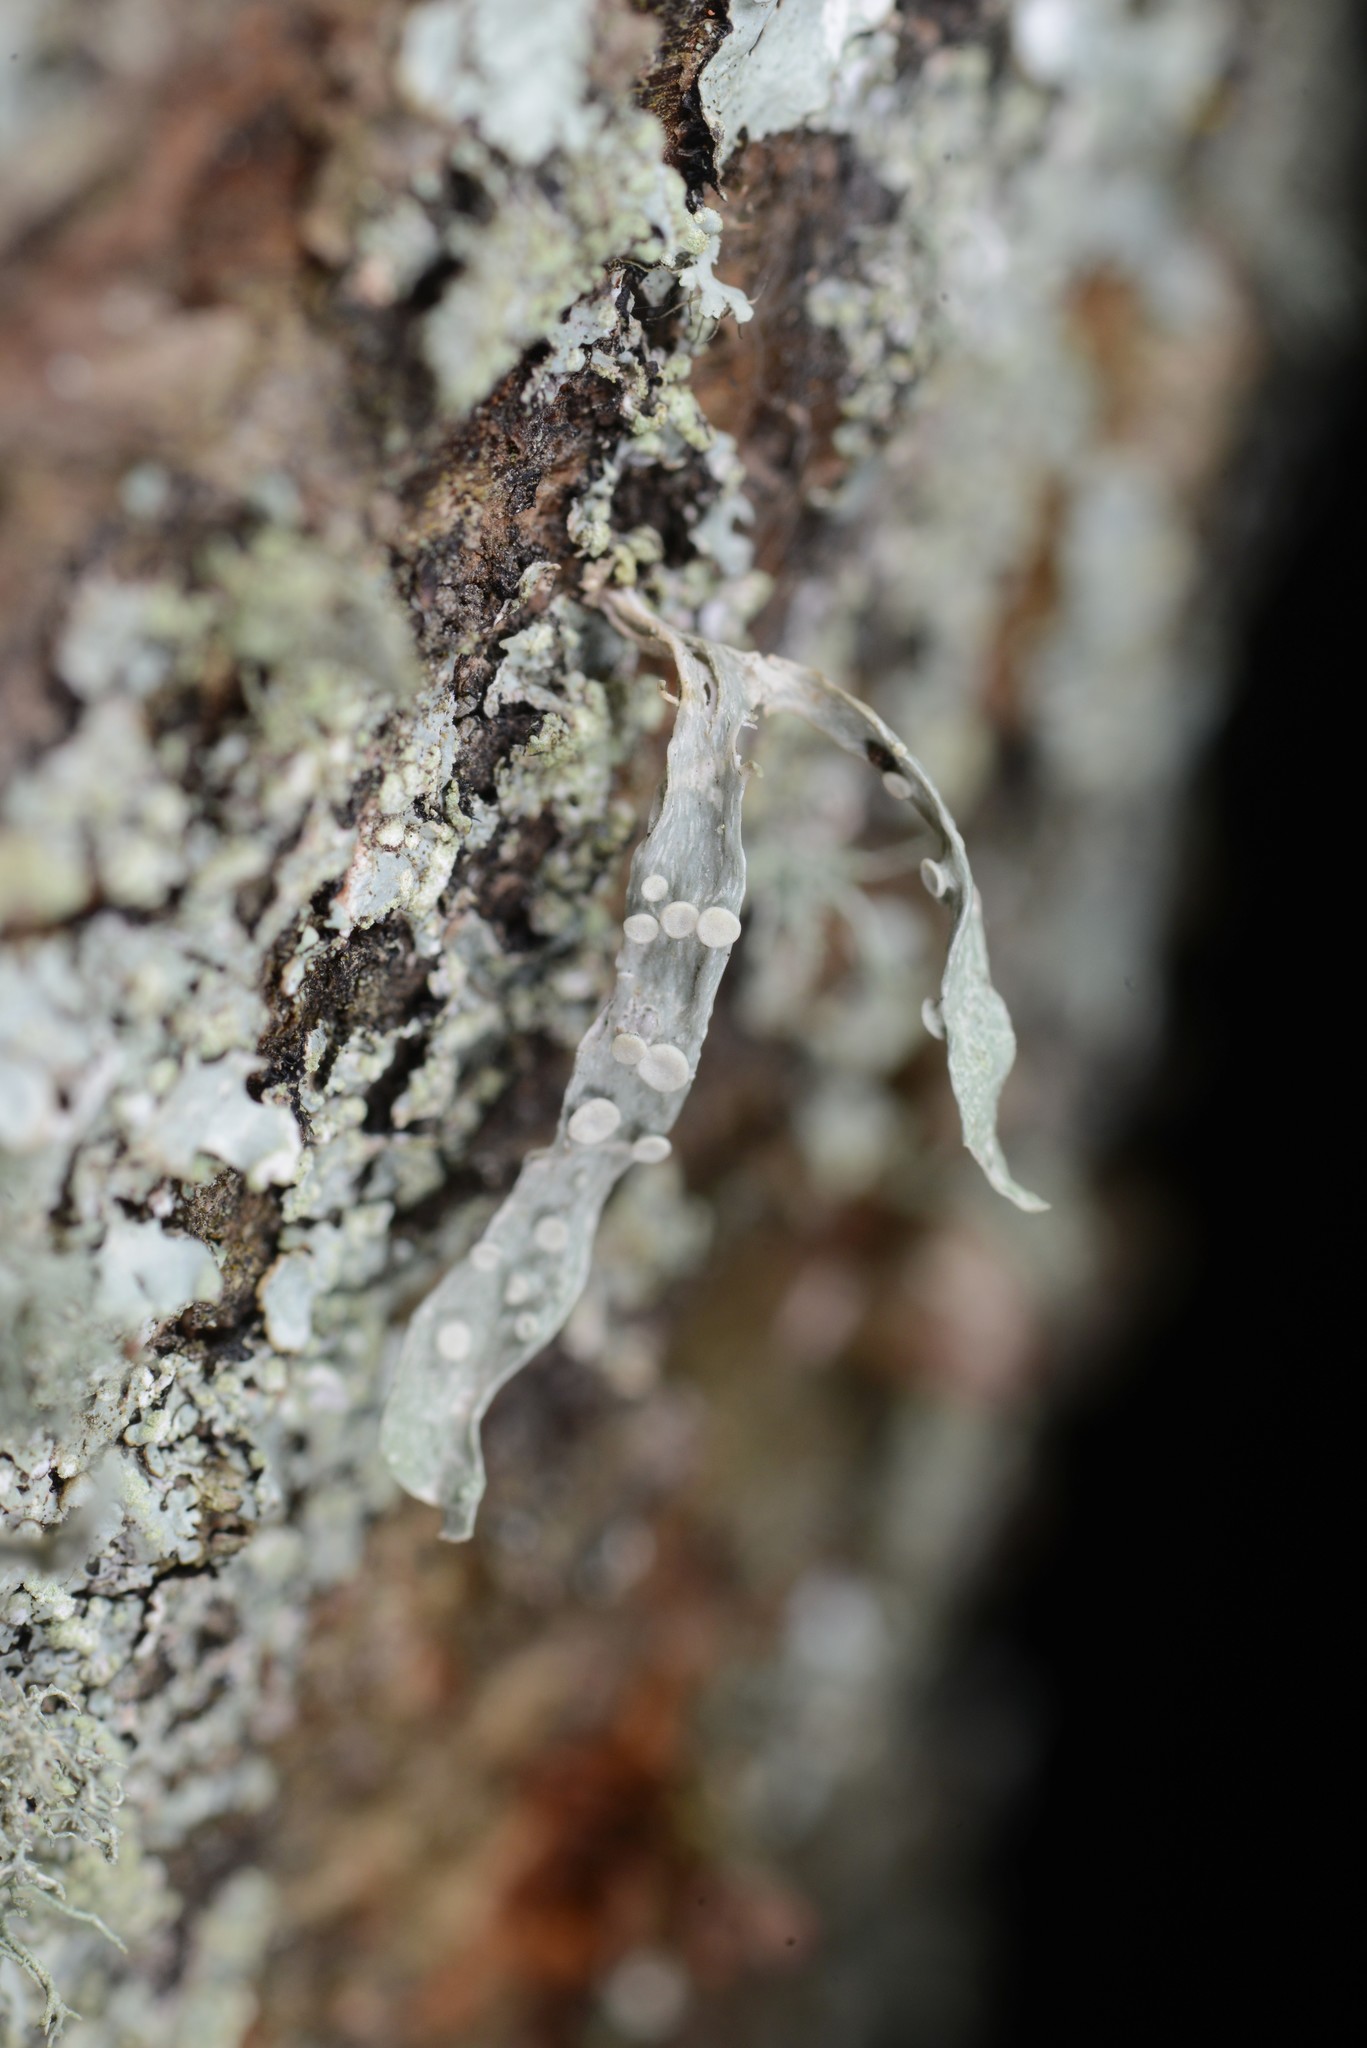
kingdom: Fungi
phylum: Ascomycota
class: Lecanoromycetes
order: Lecanorales
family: Ramalinaceae
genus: Ramalina
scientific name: Ramalina celastri
